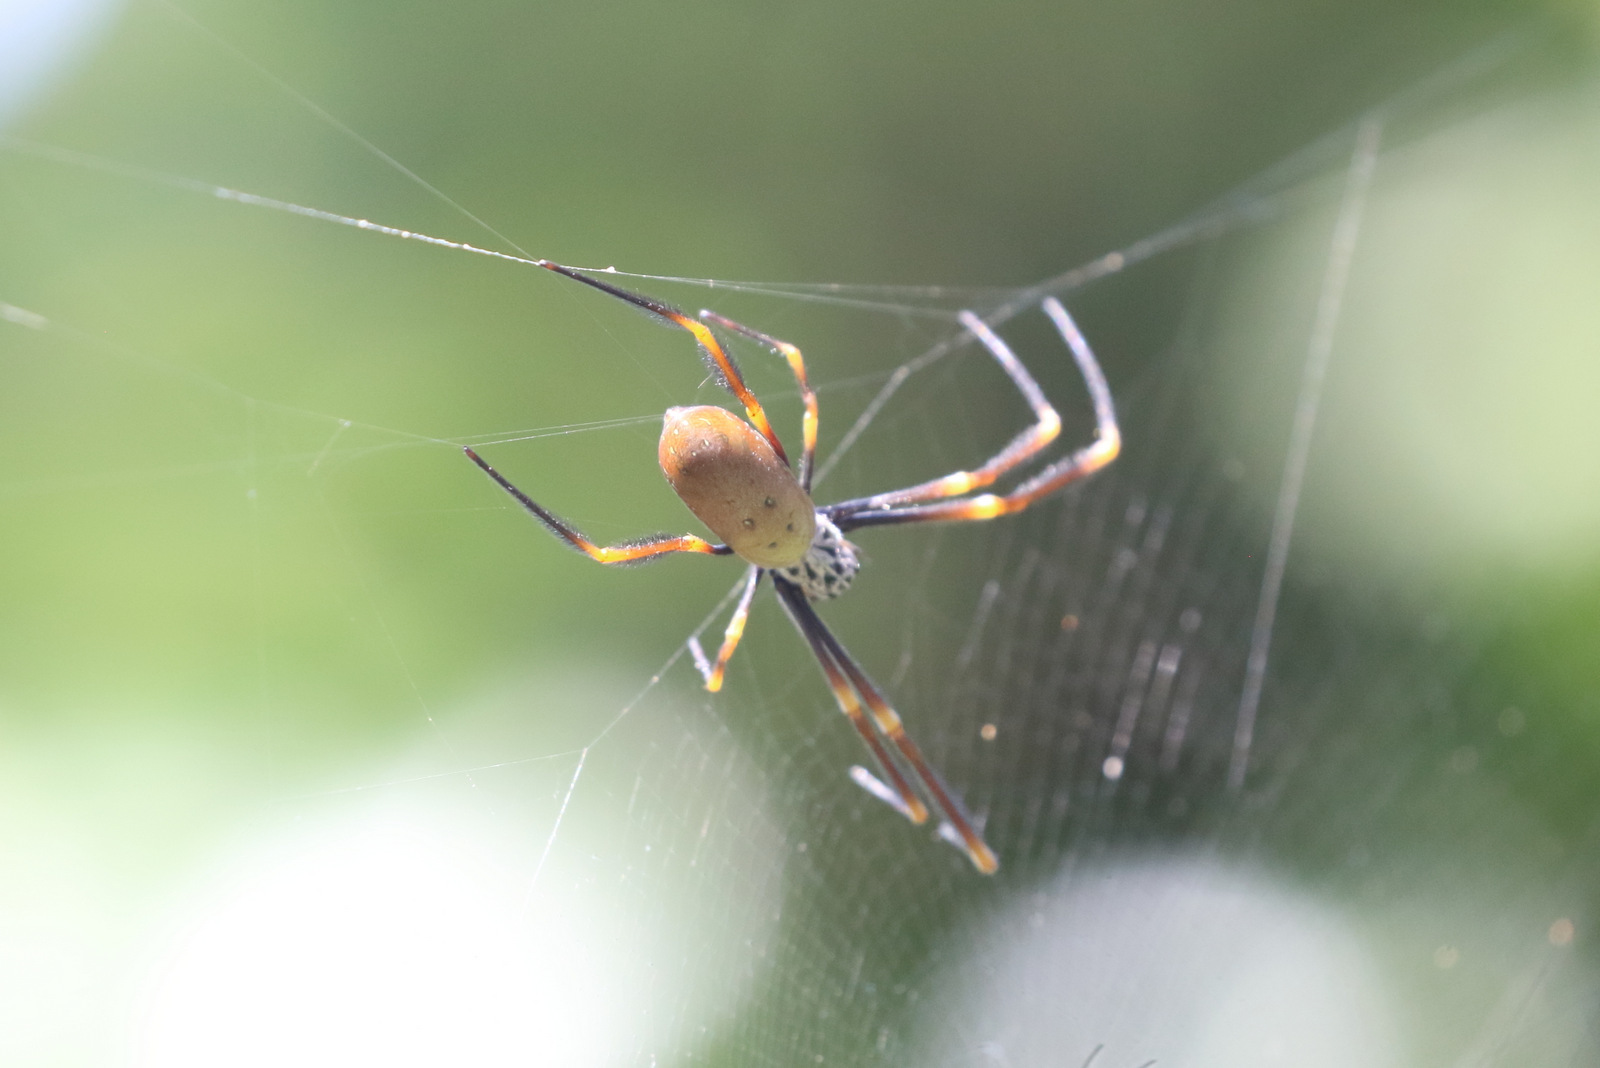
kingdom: Animalia
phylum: Arthropoda
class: Arachnida
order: Araneae
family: Araneidae
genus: Trichonephila
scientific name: Trichonephila plumipes
